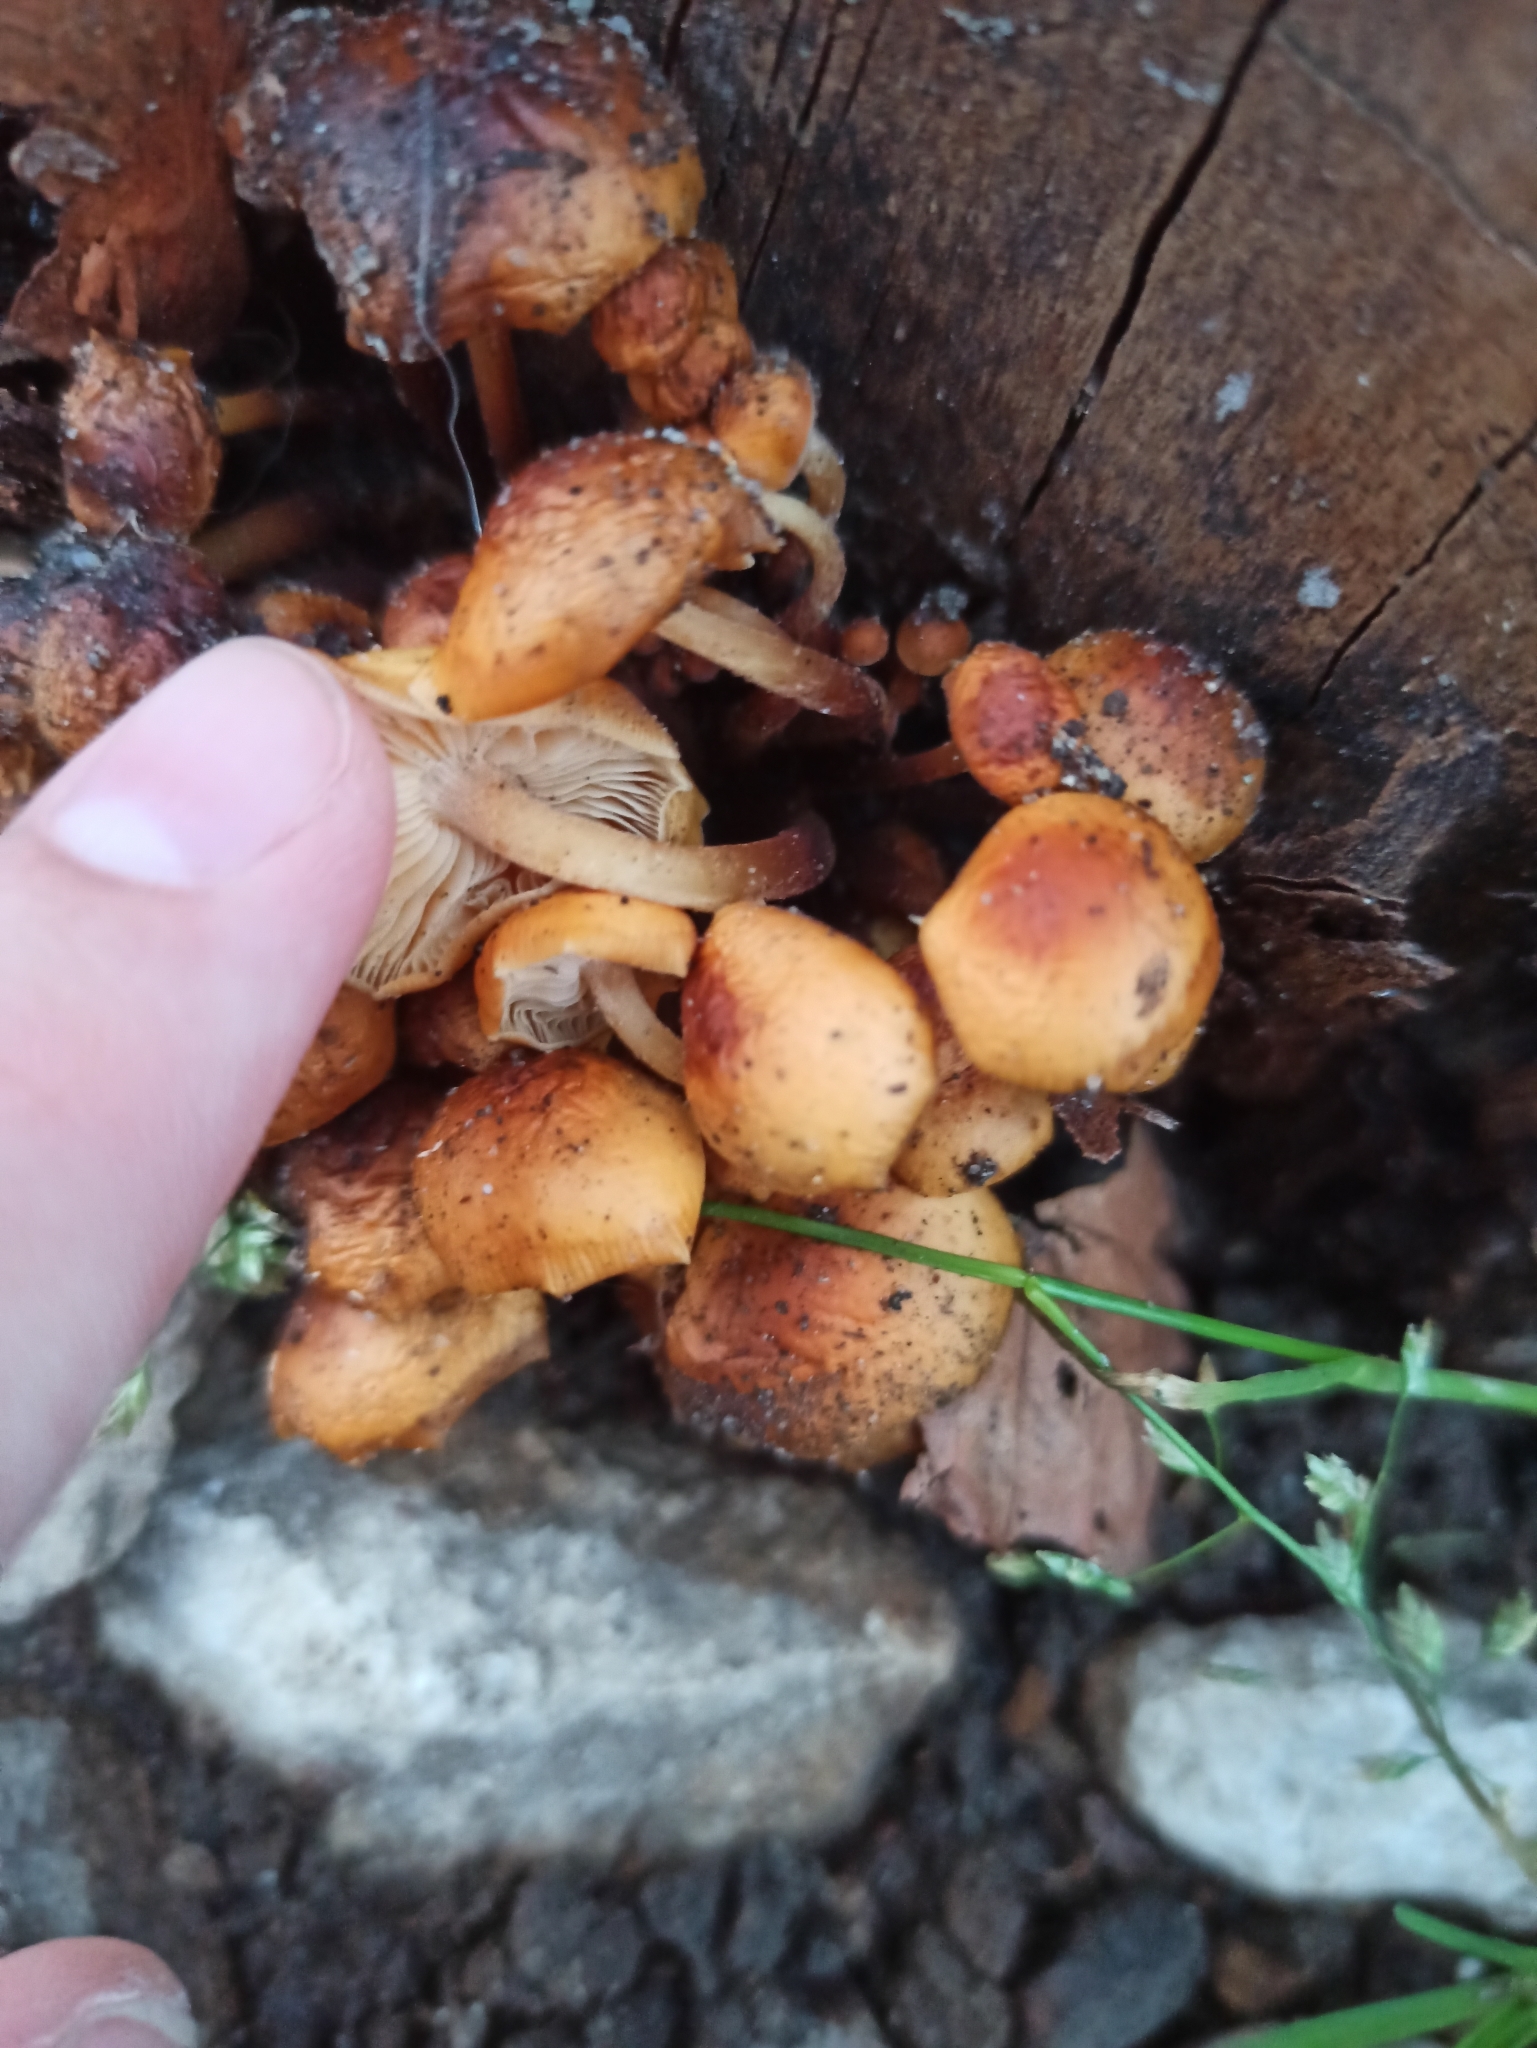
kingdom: Fungi
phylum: Basidiomycota
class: Agaricomycetes
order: Agaricales
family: Physalacriaceae
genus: Flammulina
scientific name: Flammulina
